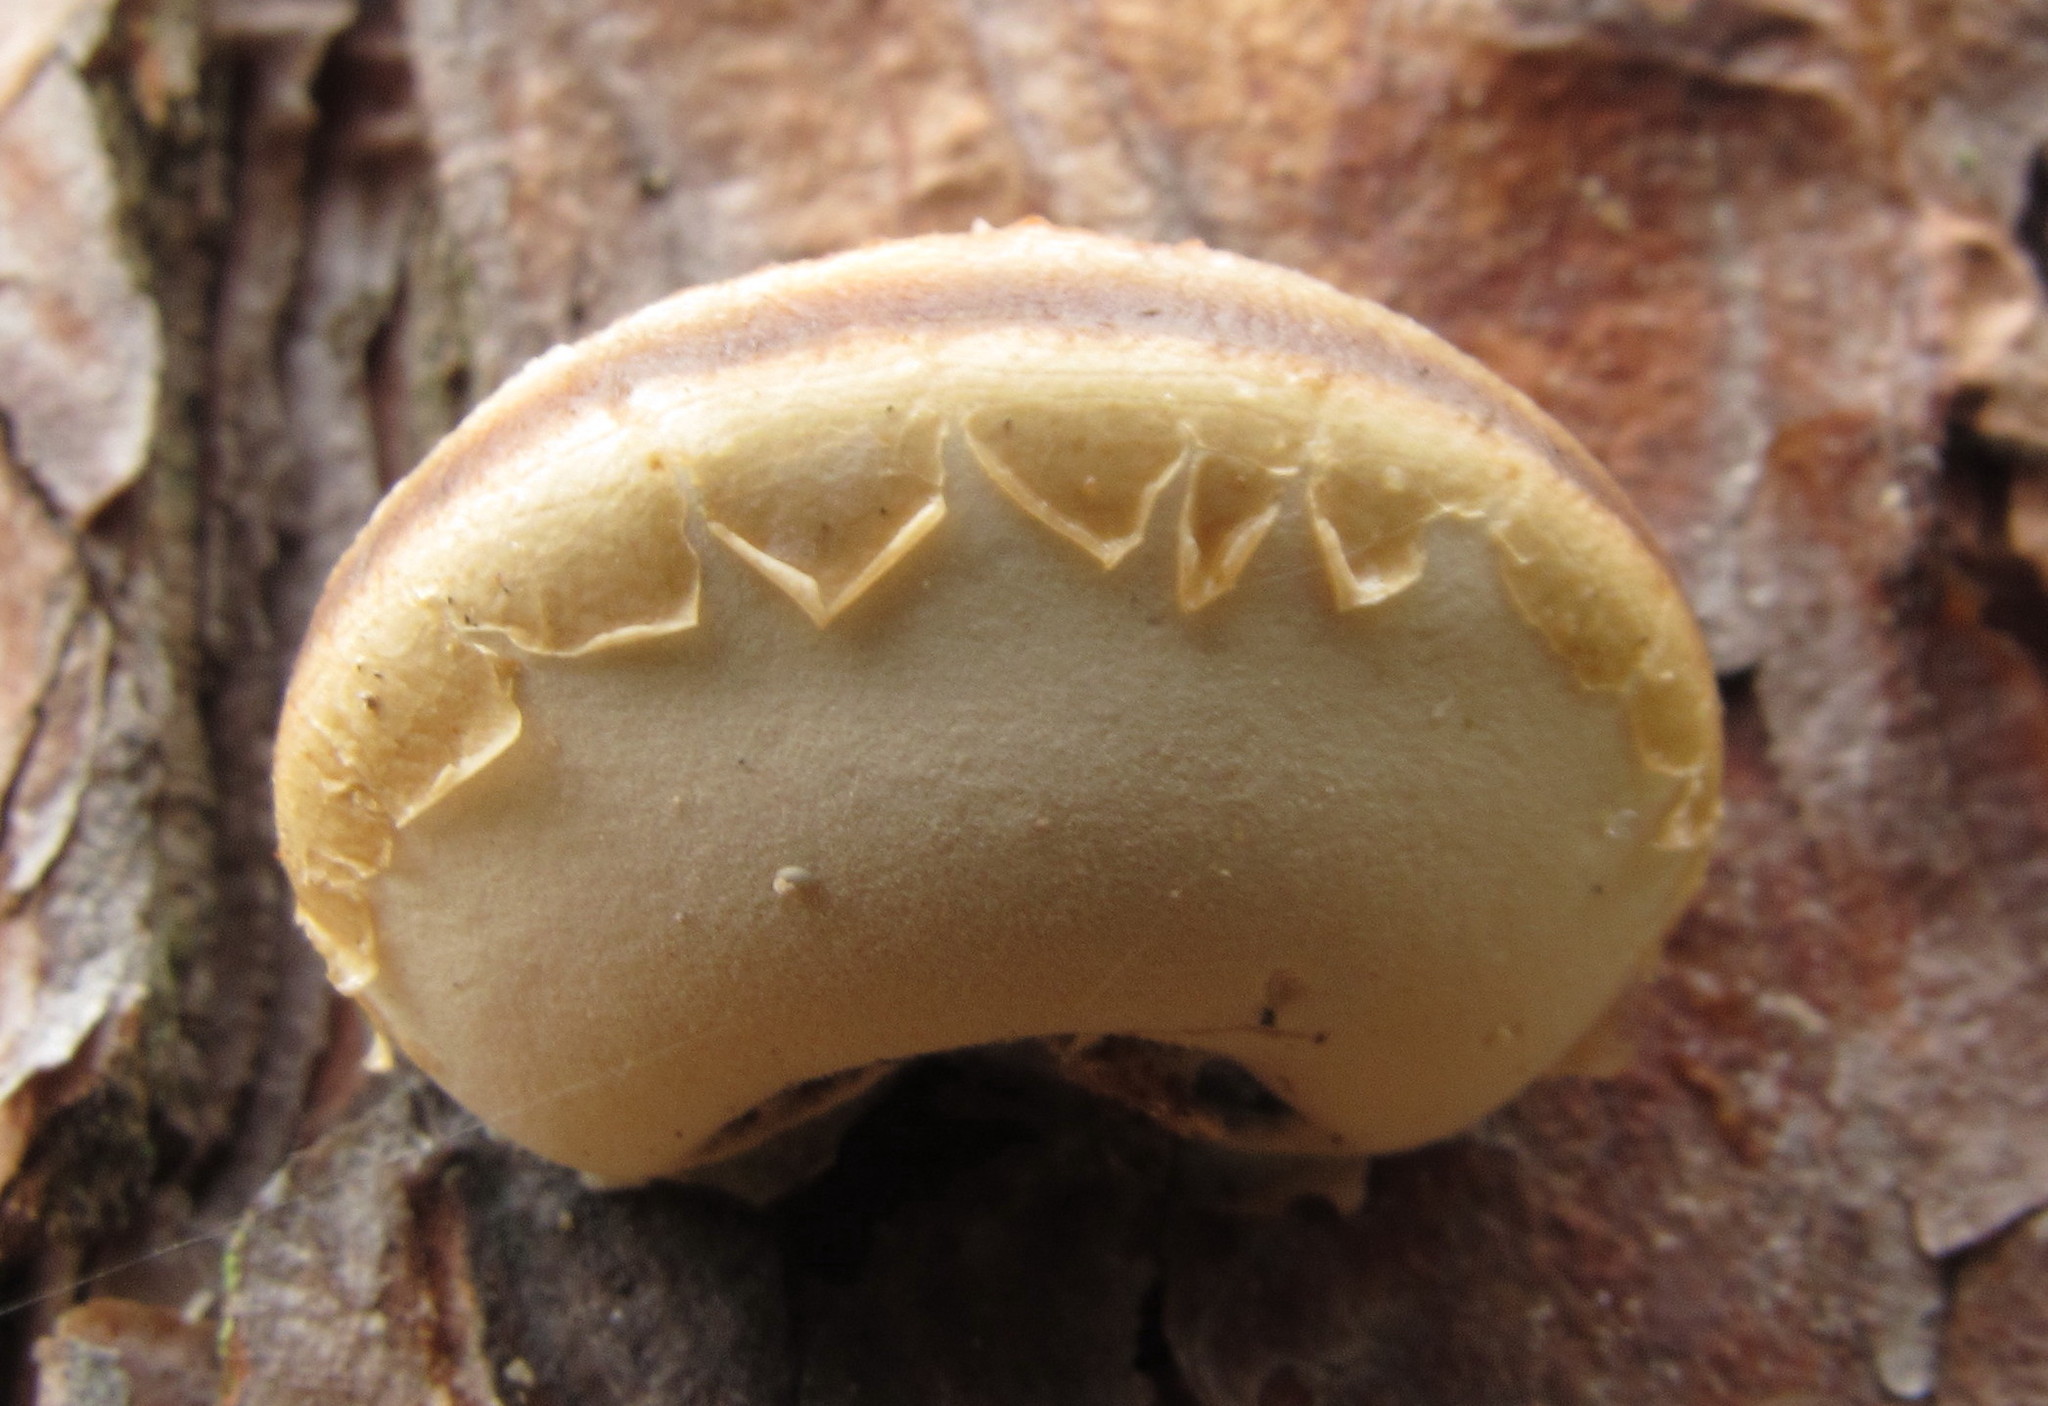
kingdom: Fungi
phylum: Basidiomycota
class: Agaricomycetes
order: Polyporales
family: Polyporaceae
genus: Cryptoporus
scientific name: Cryptoporus volvatus
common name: Veiled polypore
